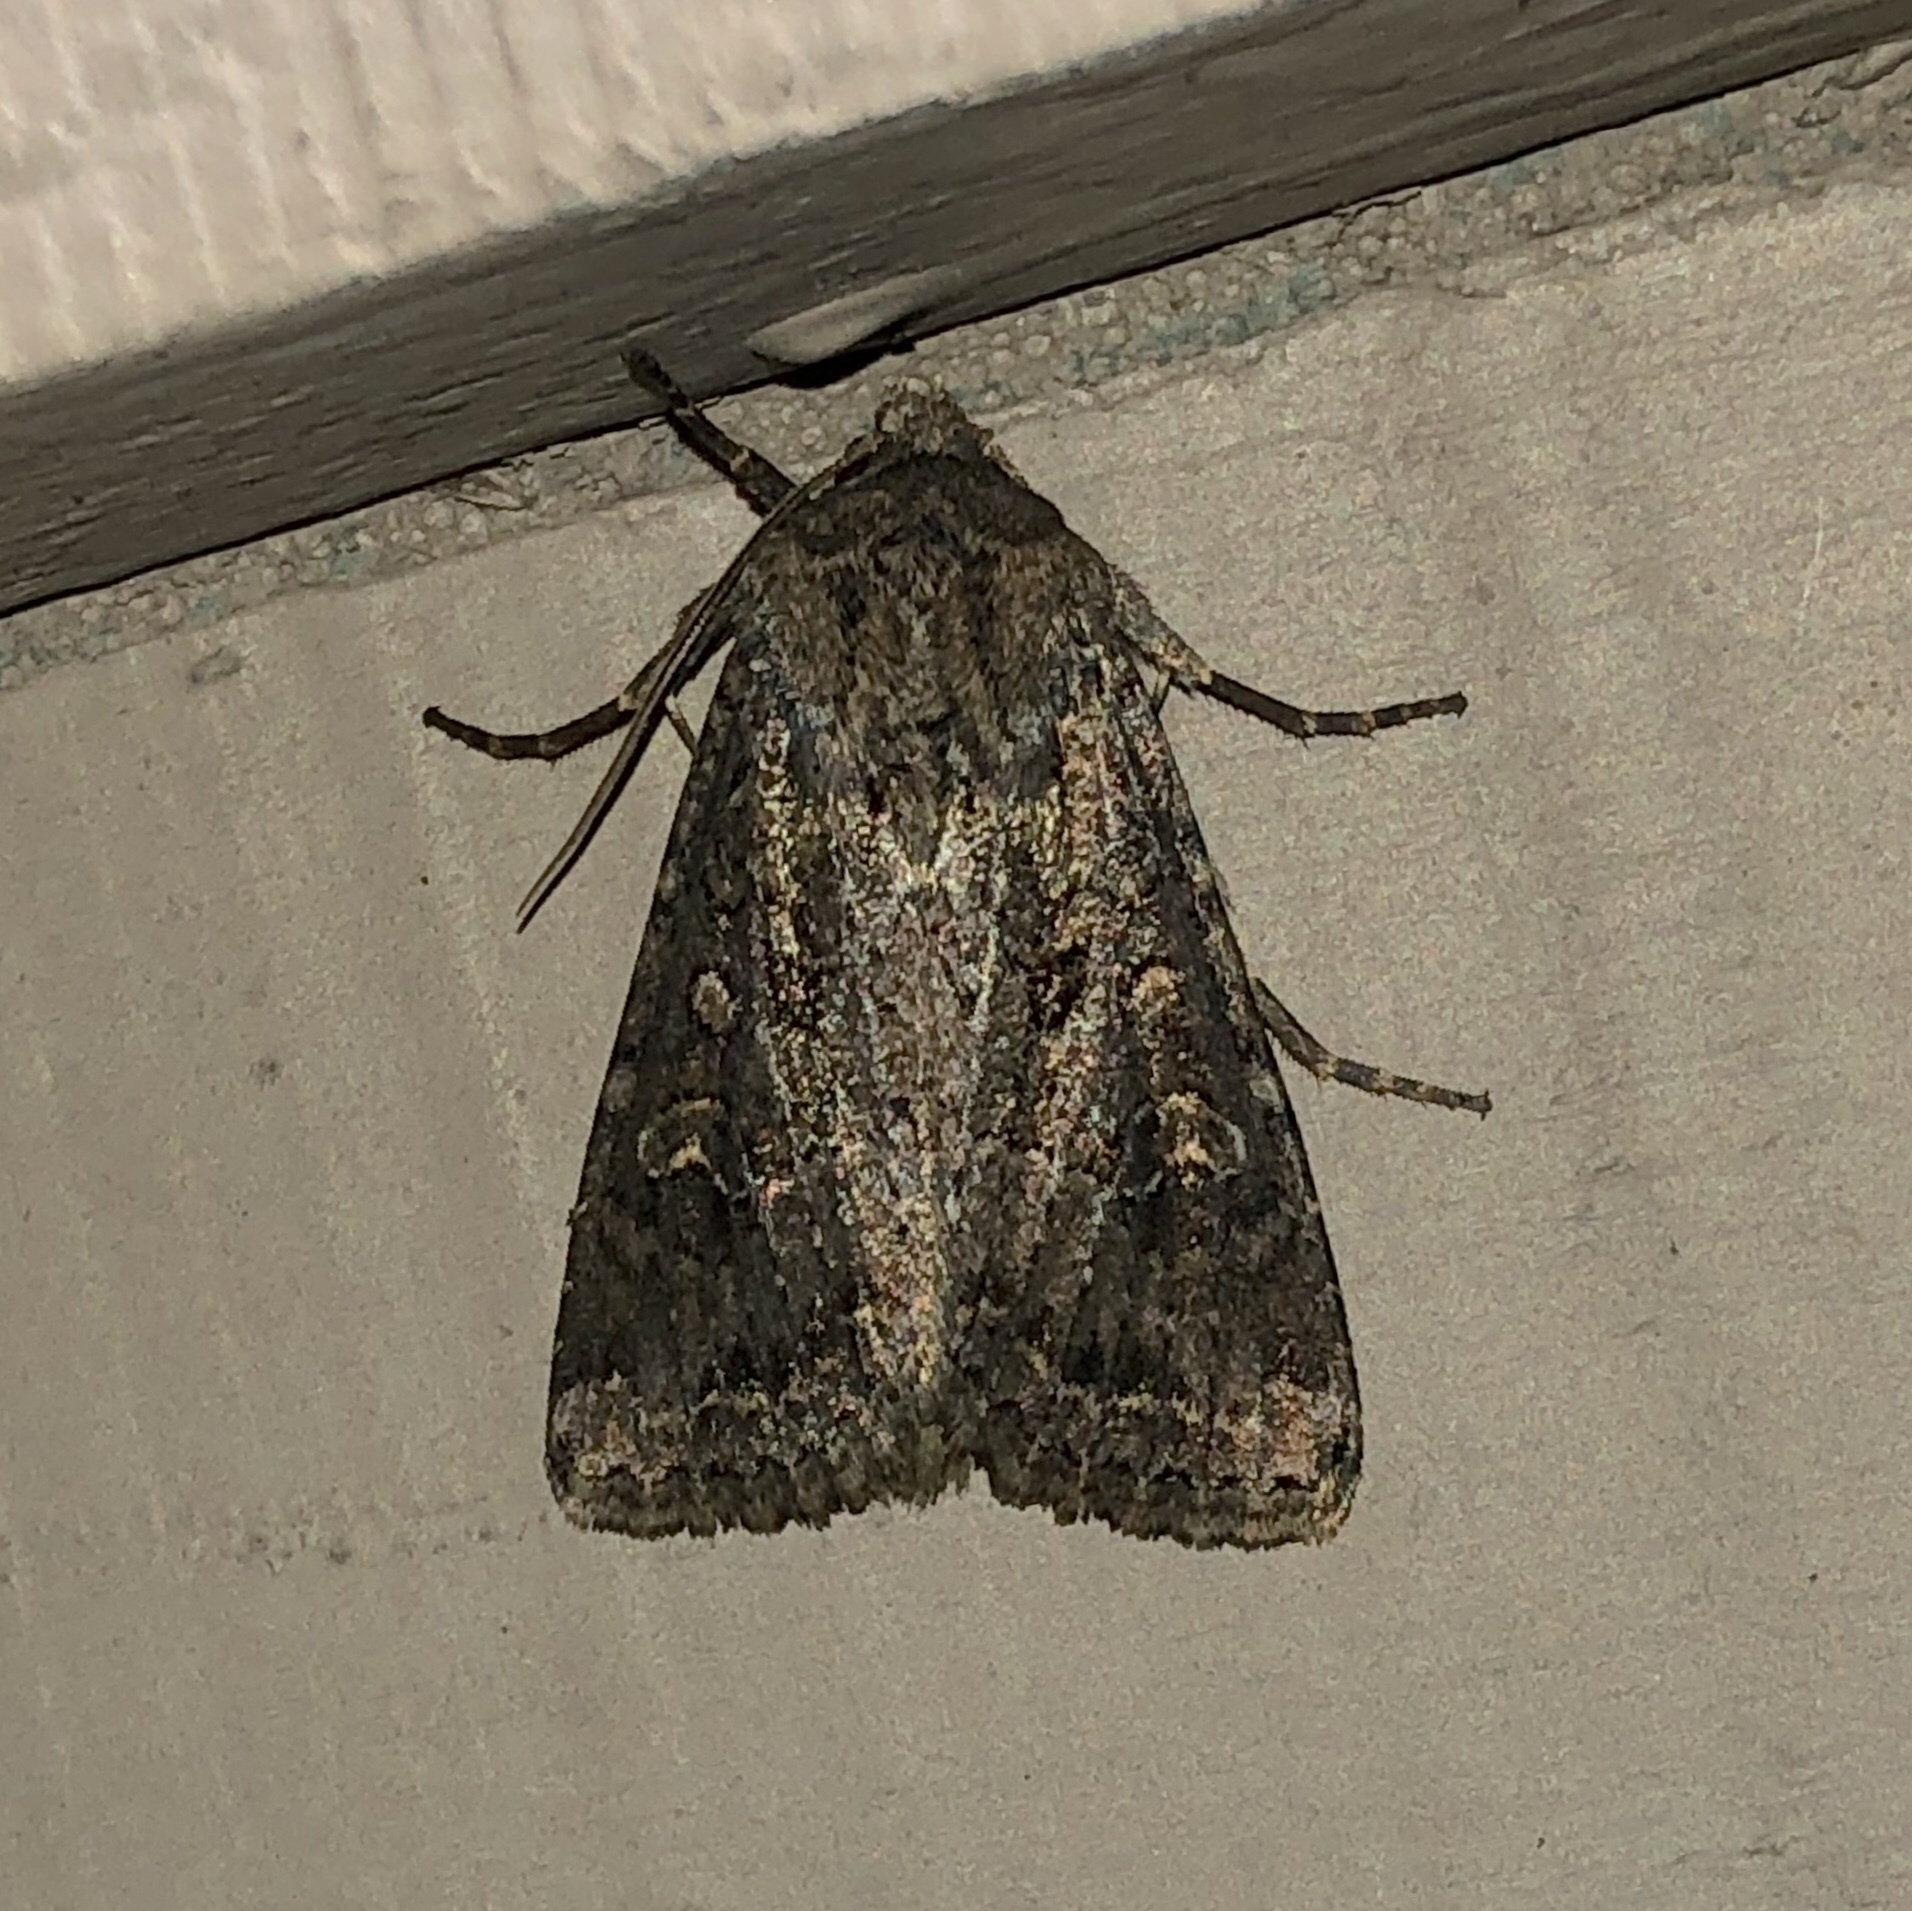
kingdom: Animalia
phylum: Arthropoda
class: Insecta
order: Lepidoptera
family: Noctuidae
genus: Apamea
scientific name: Apamea devastator
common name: Glassy cutworm
